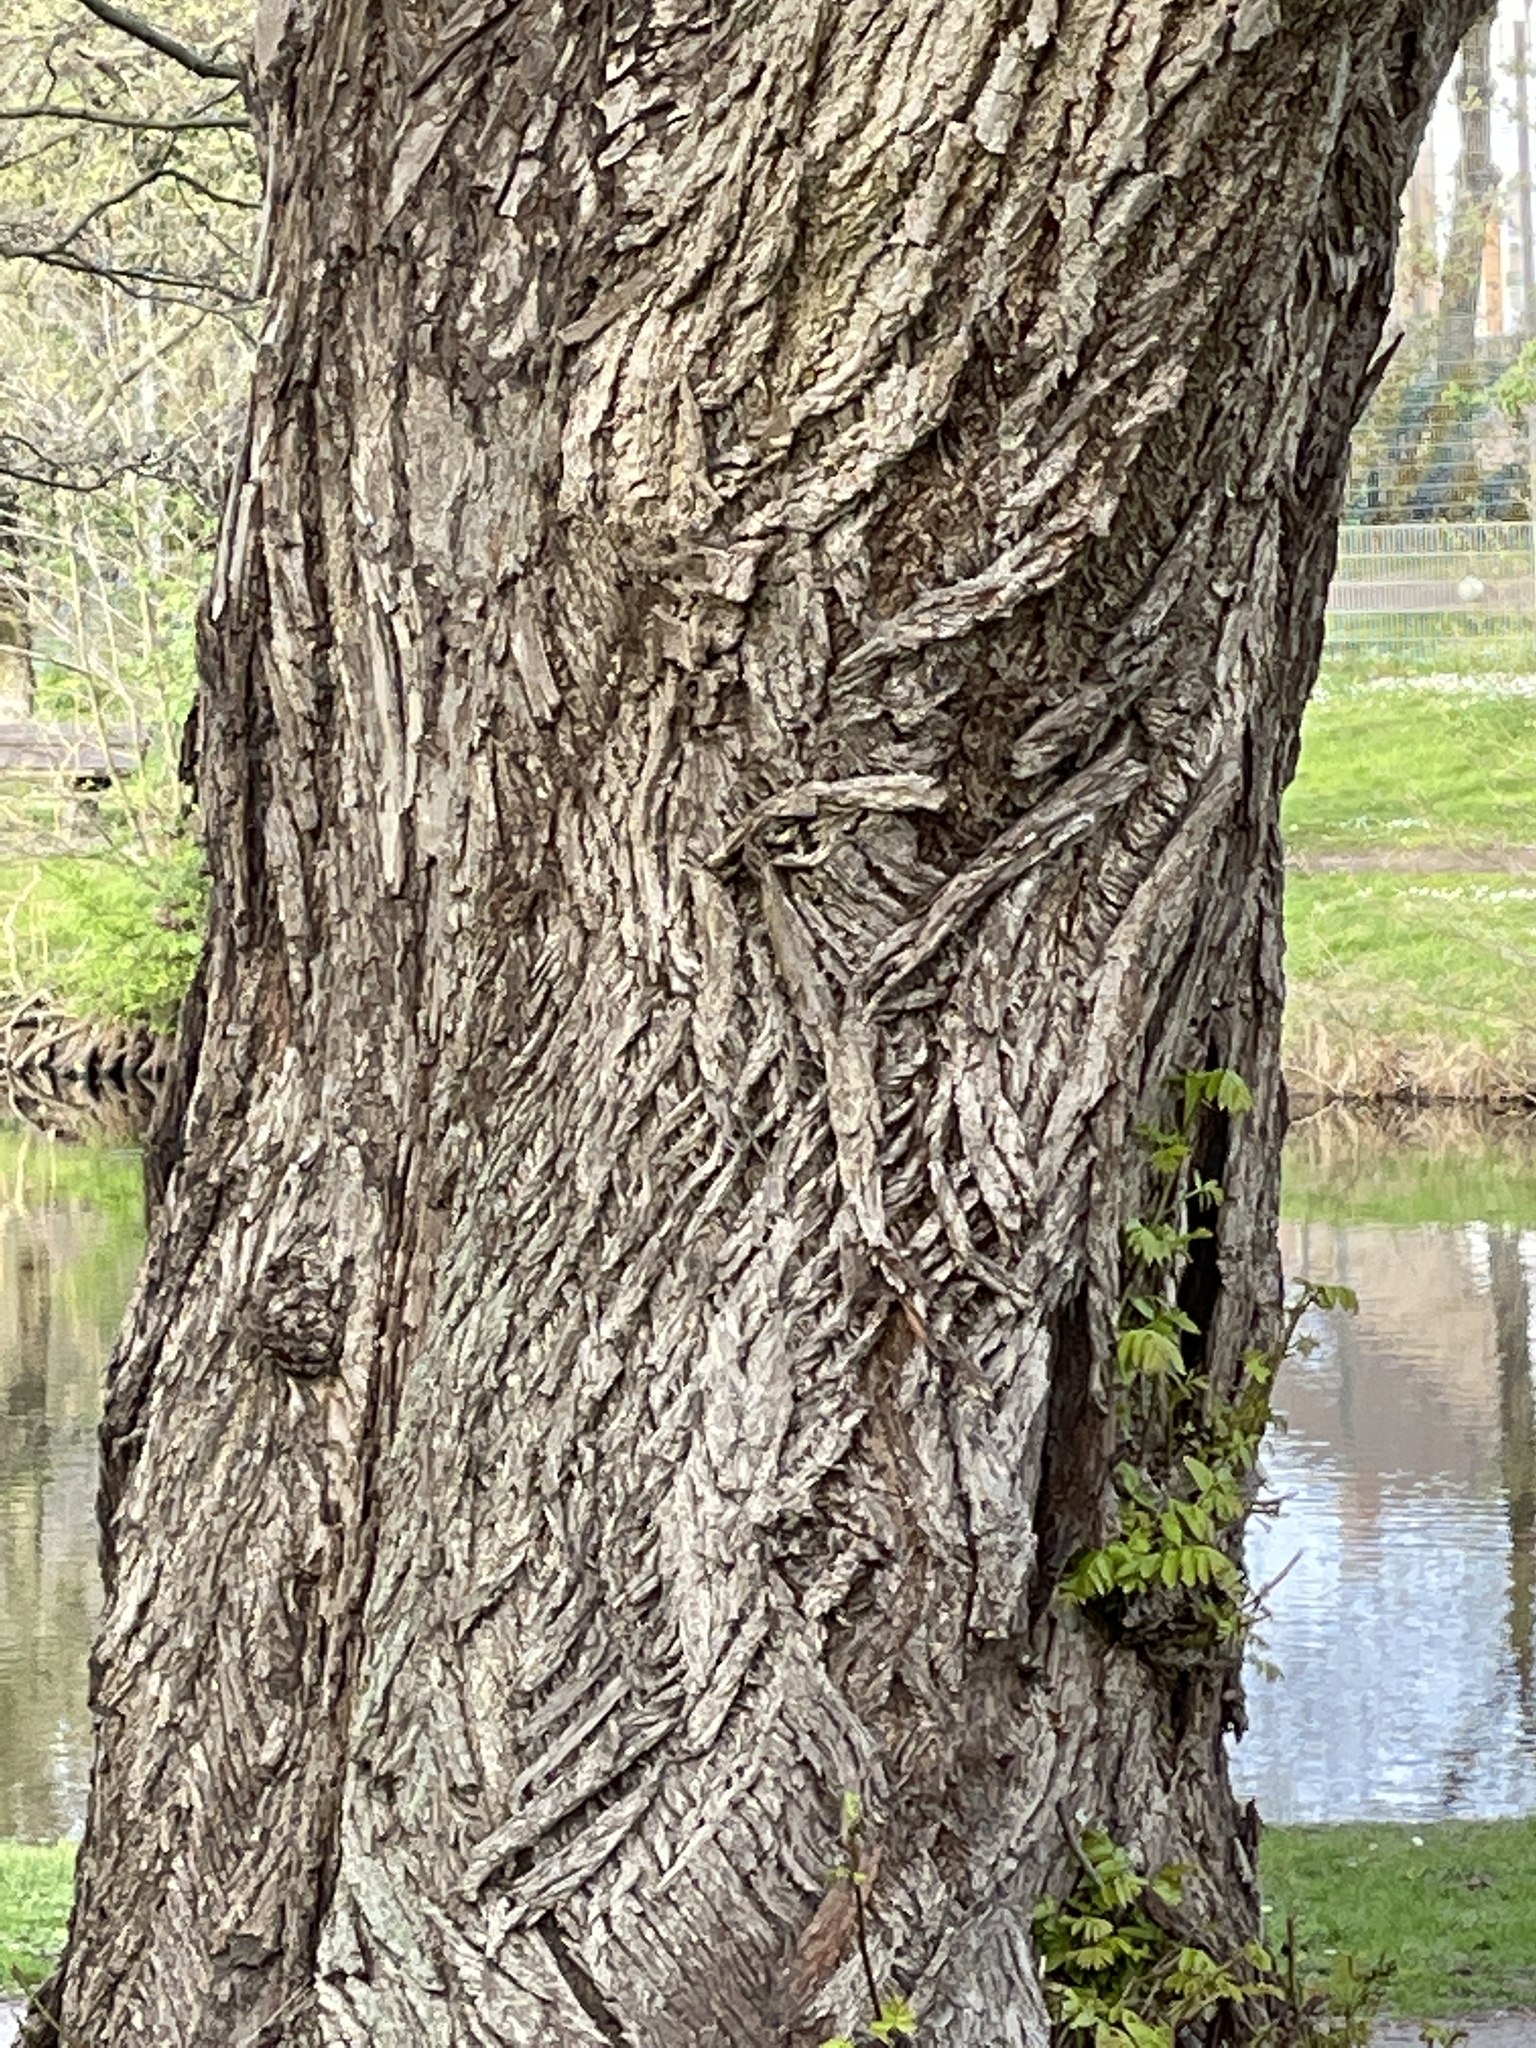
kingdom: Plantae
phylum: Tracheophyta
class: Magnoliopsida
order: Fagales
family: Juglandaceae
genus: Pterocarya
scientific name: Pterocarya fraxinifolia
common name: Caucasian wingnut
